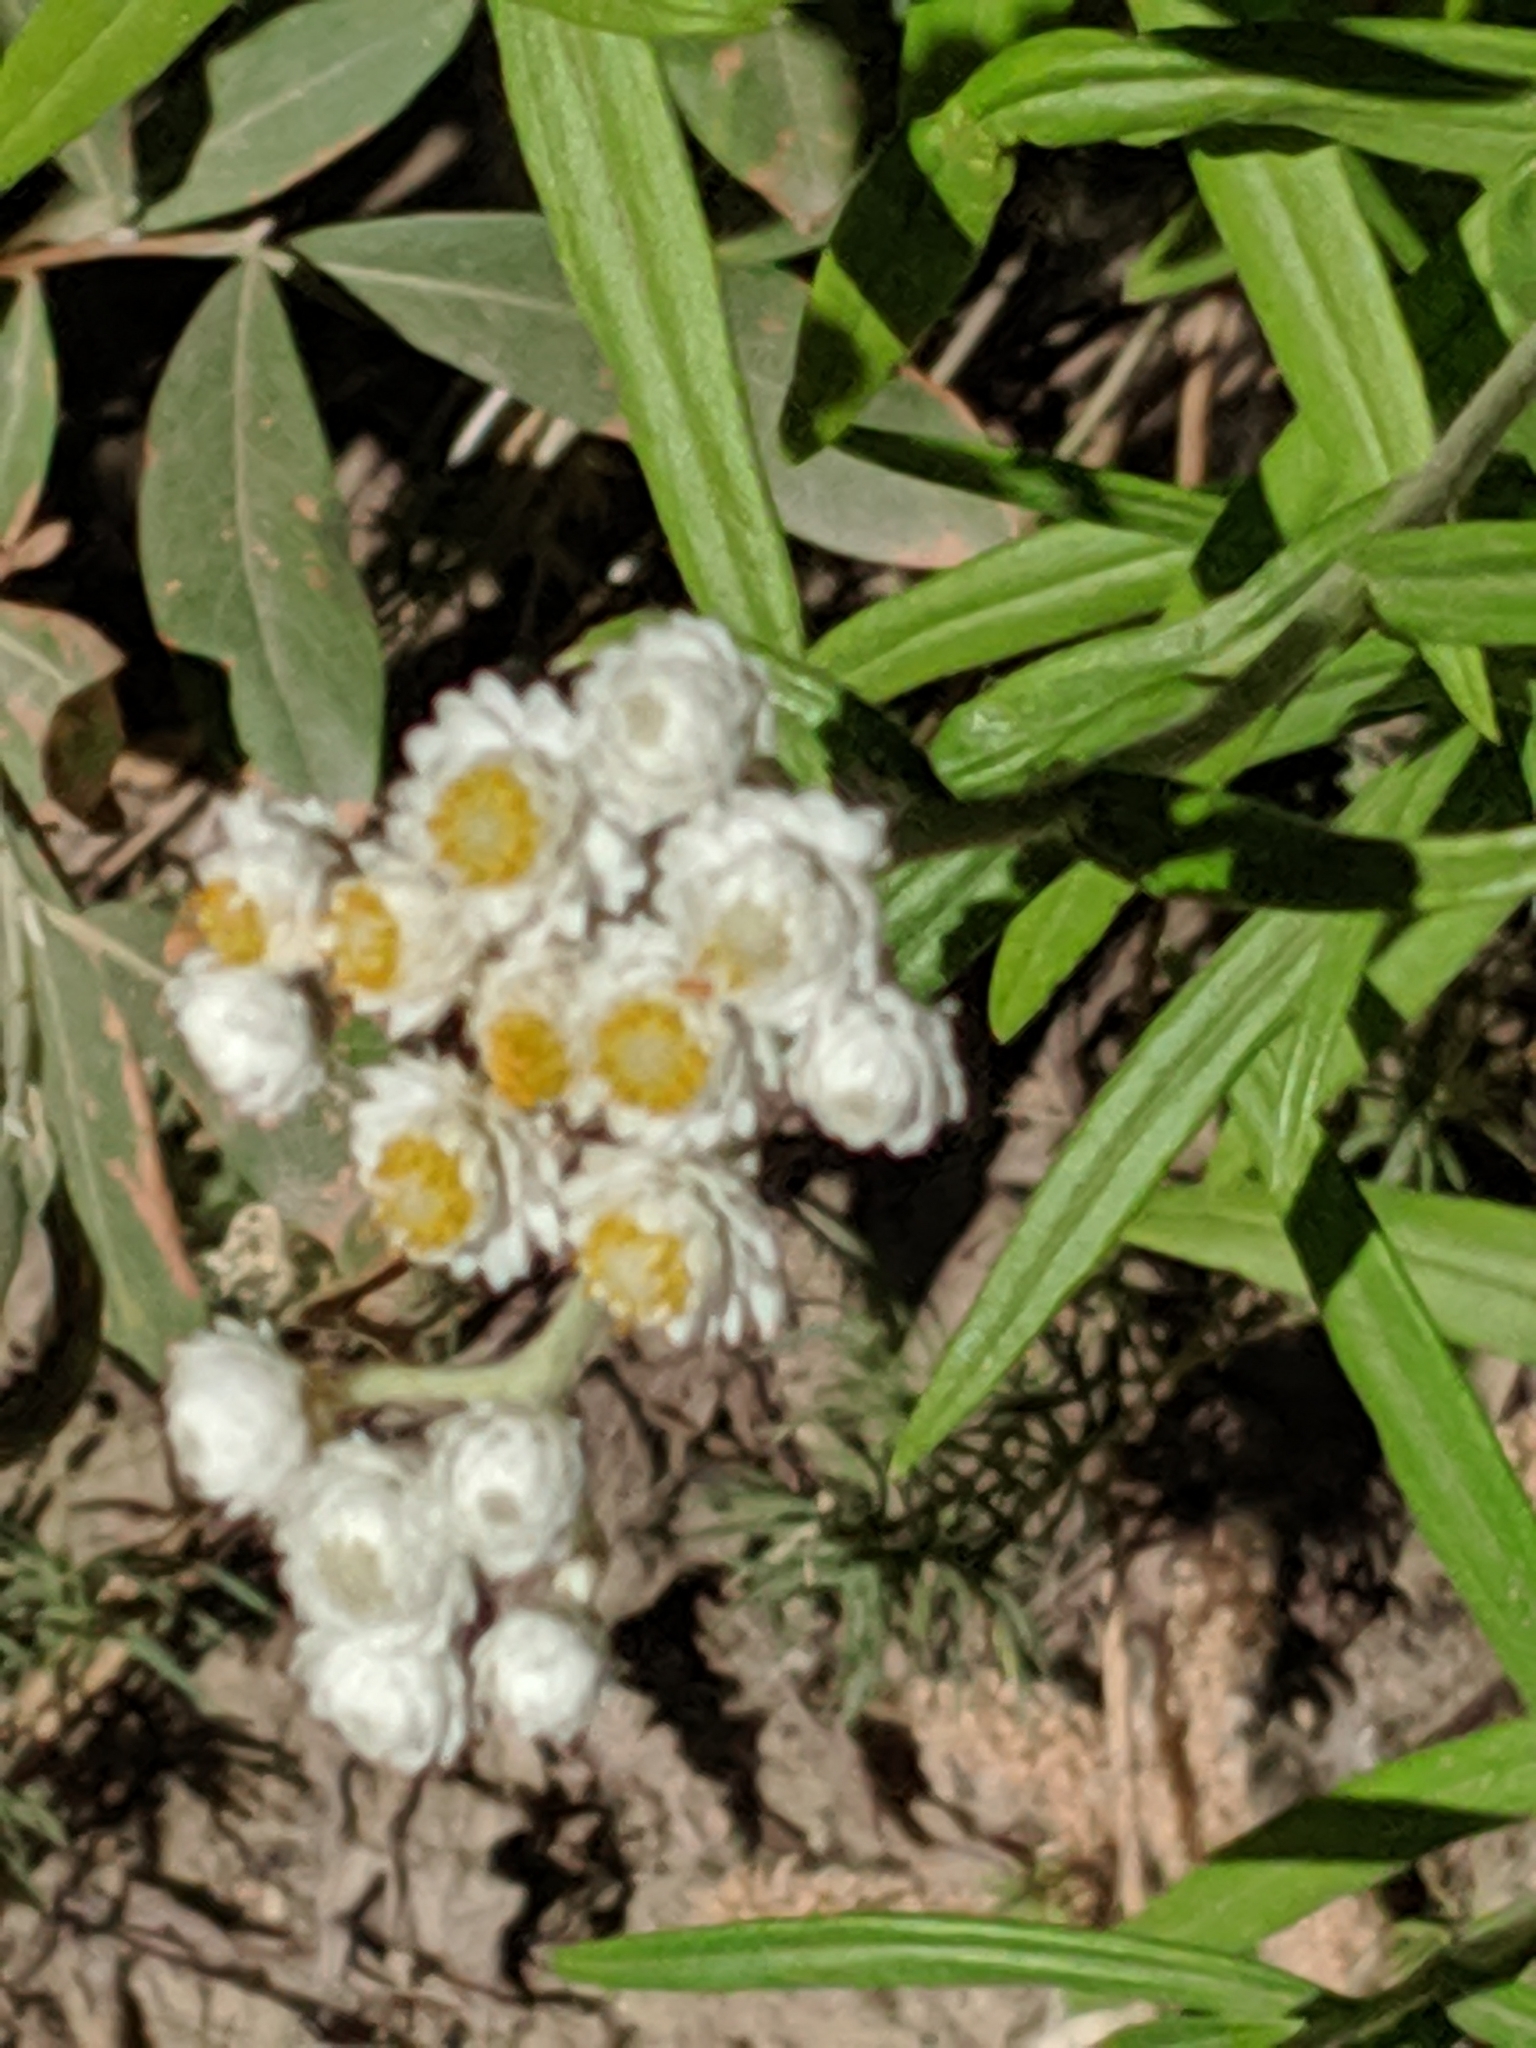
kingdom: Plantae
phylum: Tracheophyta
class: Magnoliopsida
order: Asterales
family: Asteraceae
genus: Anaphalis
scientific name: Anaphalis margaritacea
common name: Pearly everlasting
